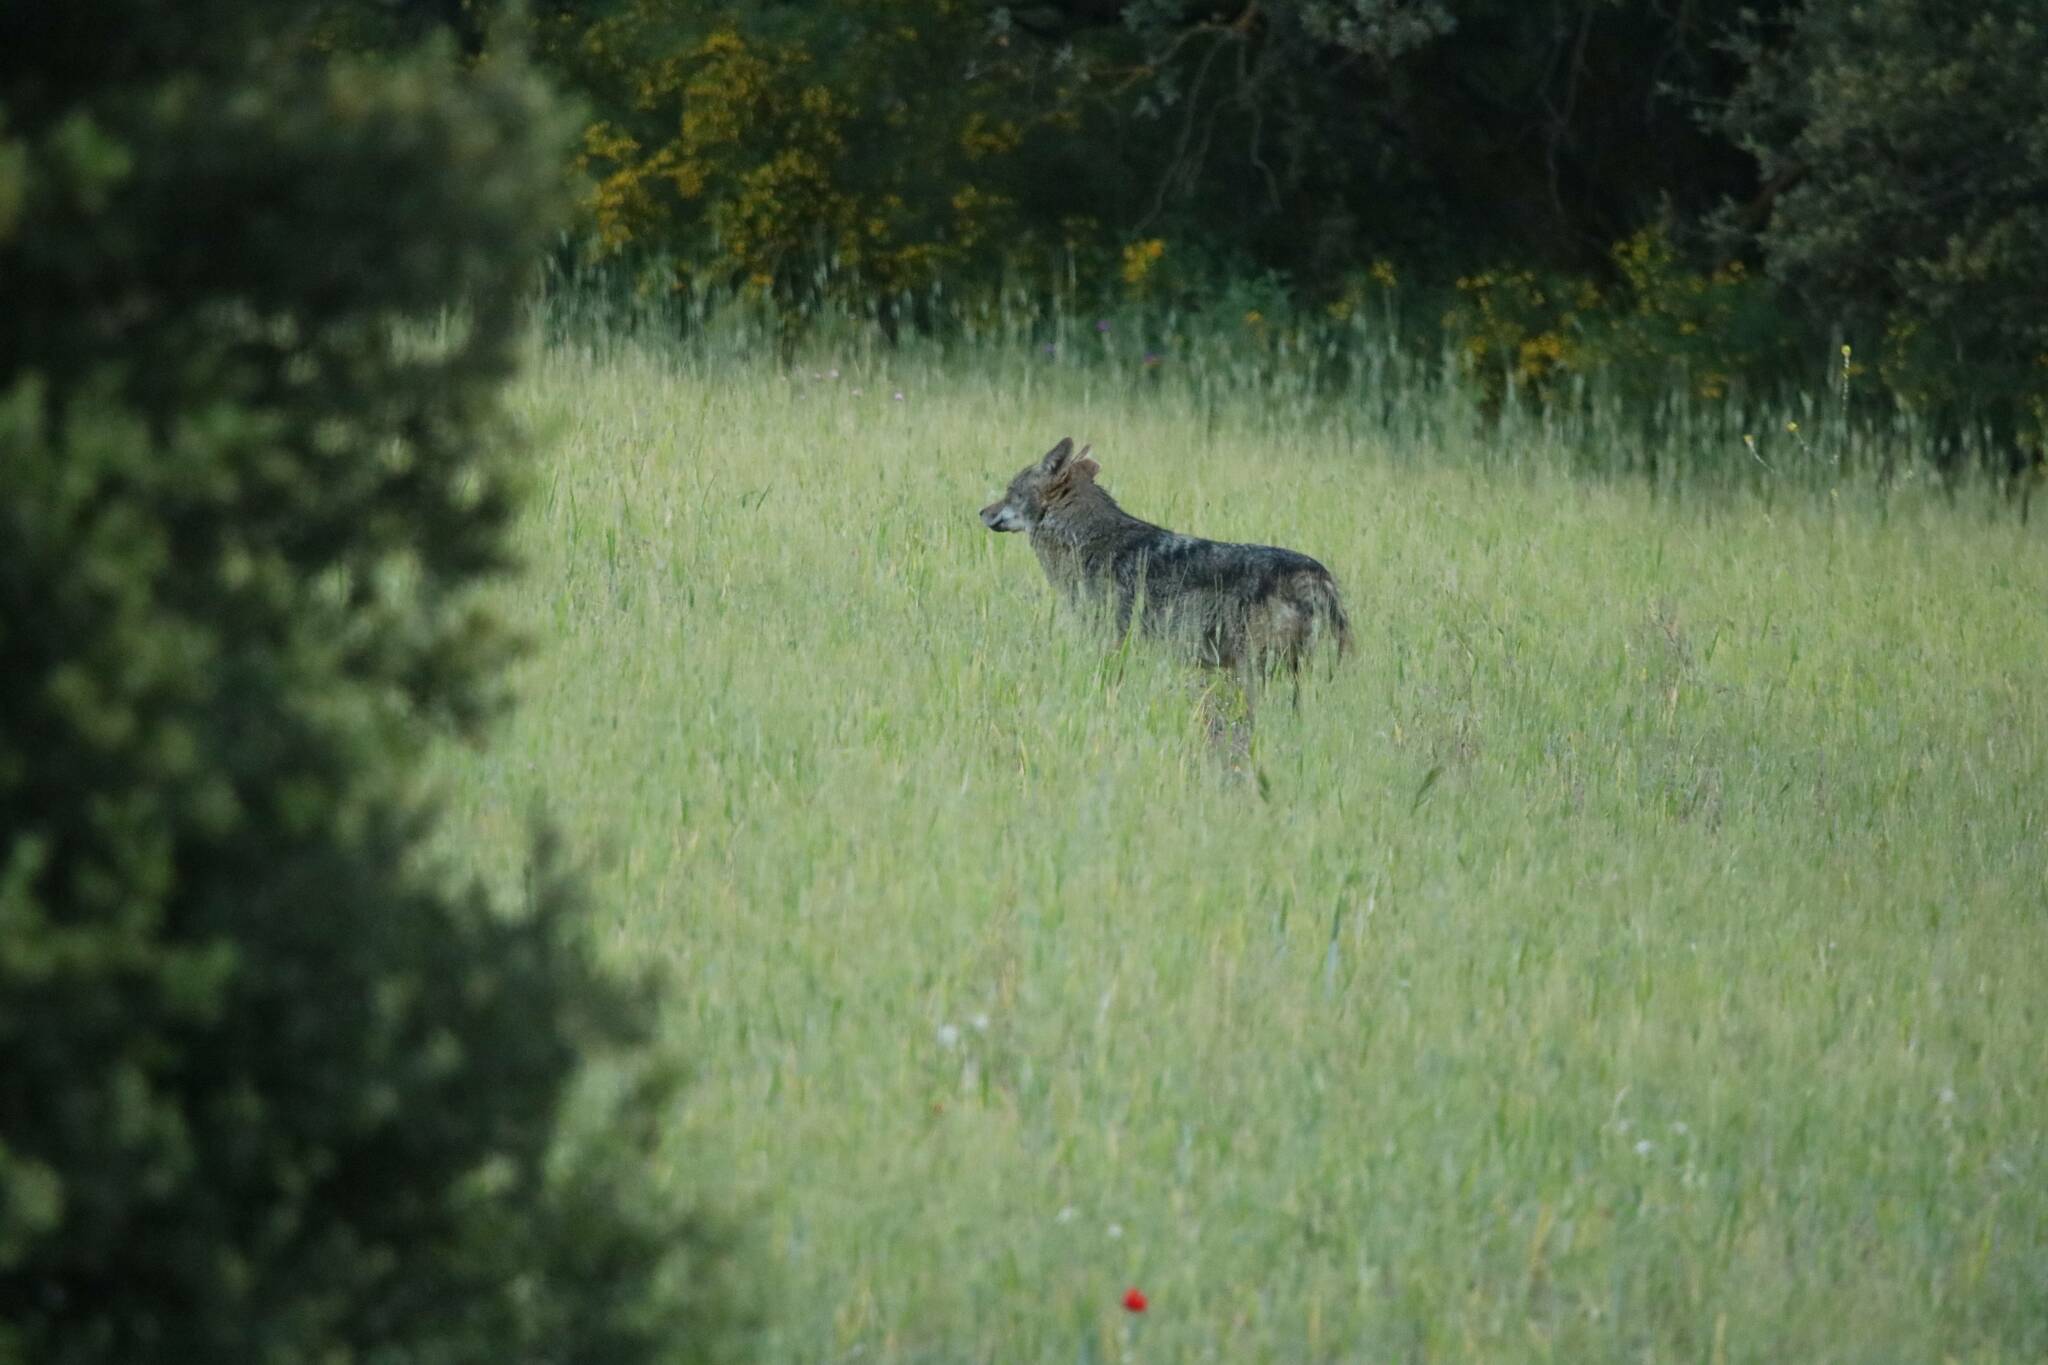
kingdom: Animalia
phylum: Chordata
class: Mammalia
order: Carnivora
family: Canidae
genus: Canis
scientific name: Canis lupaster
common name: African golden wolf
